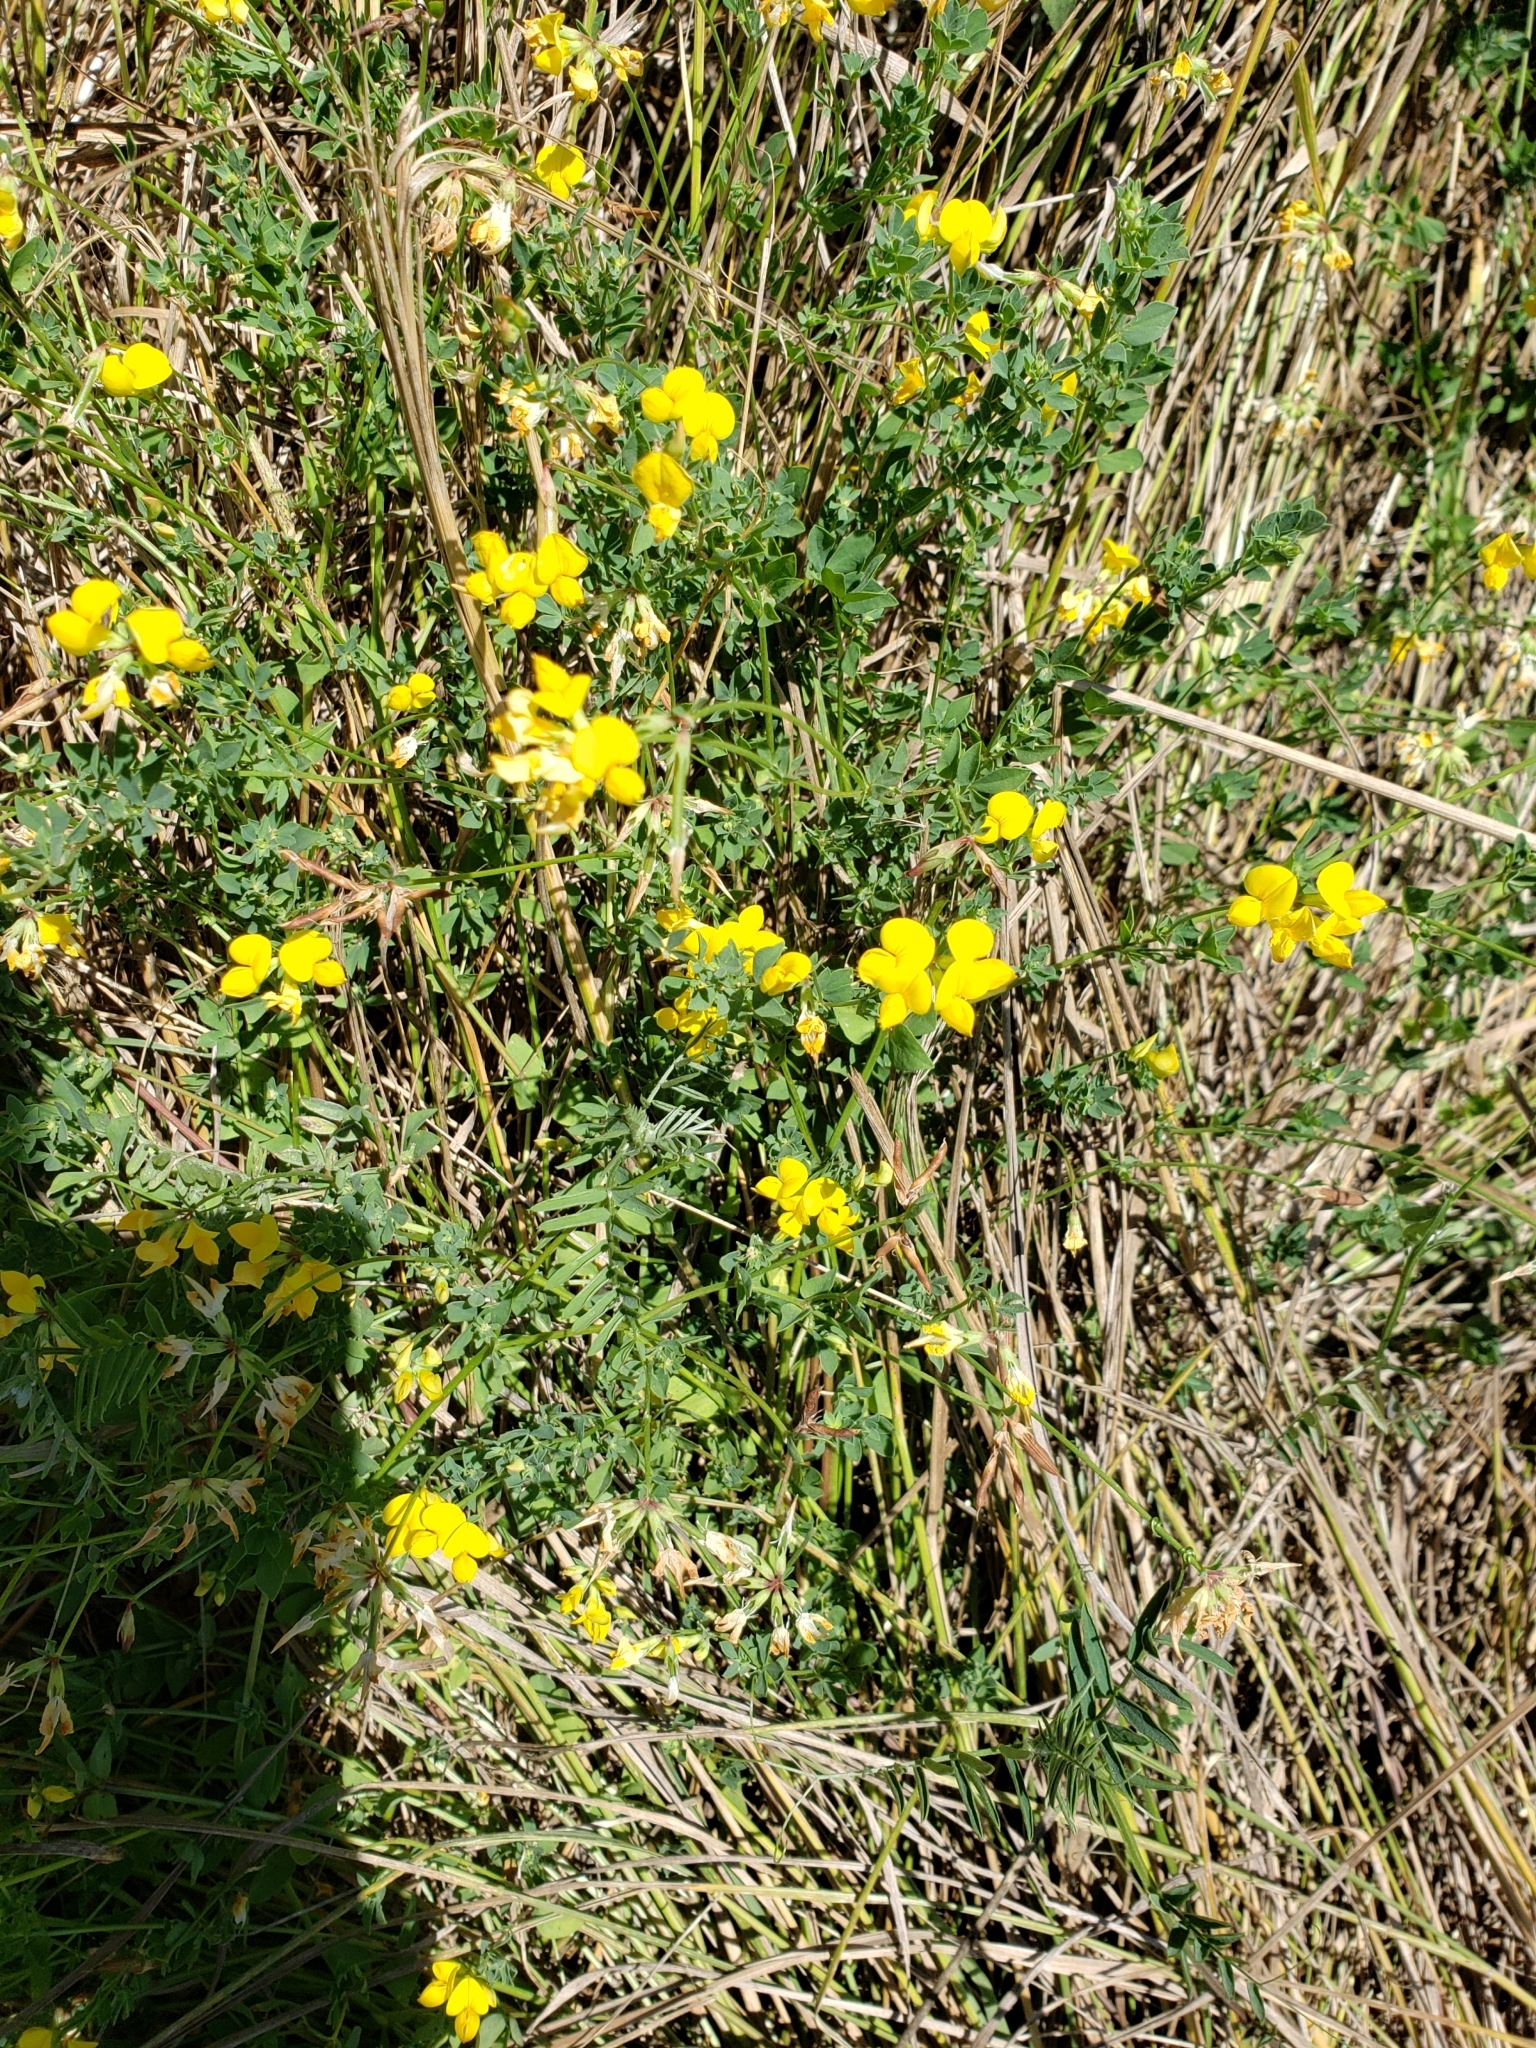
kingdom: Plantae
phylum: Tracheophyta
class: Magnoliopsida
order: Fabales
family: Fabaceae
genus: Lotus
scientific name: Lotus corniculatus
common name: Common bird's-foot-trefoil
